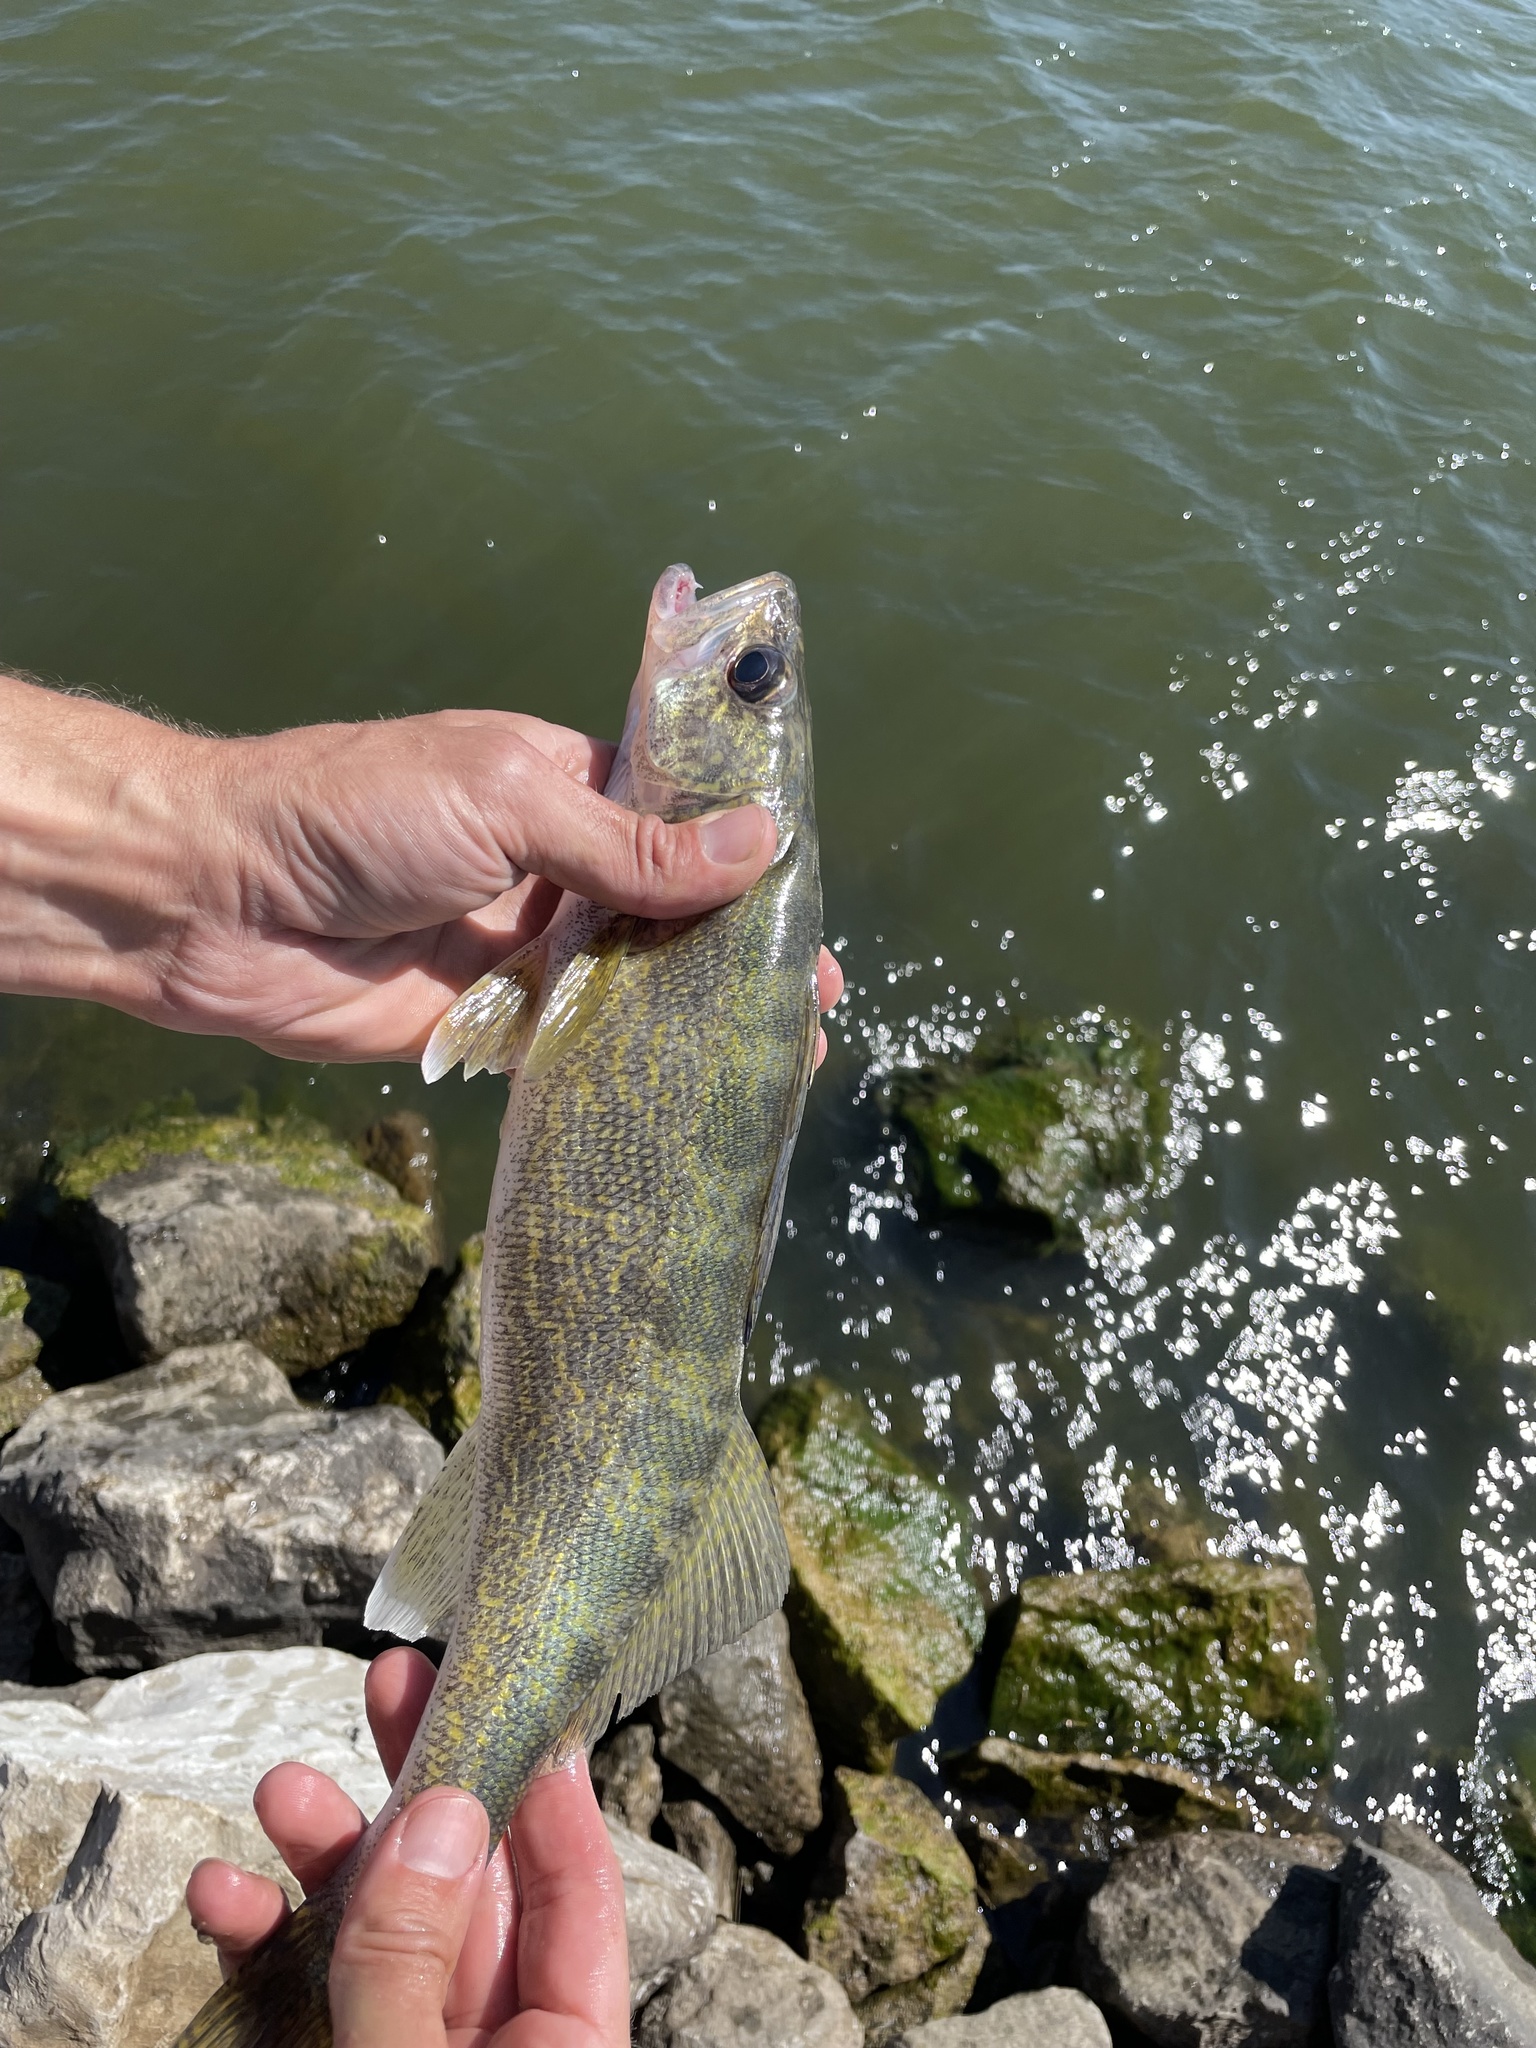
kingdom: Animalia
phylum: Chordata
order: Perciformes
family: Percidae
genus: Sander
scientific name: Sander vitreus
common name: Walleye
